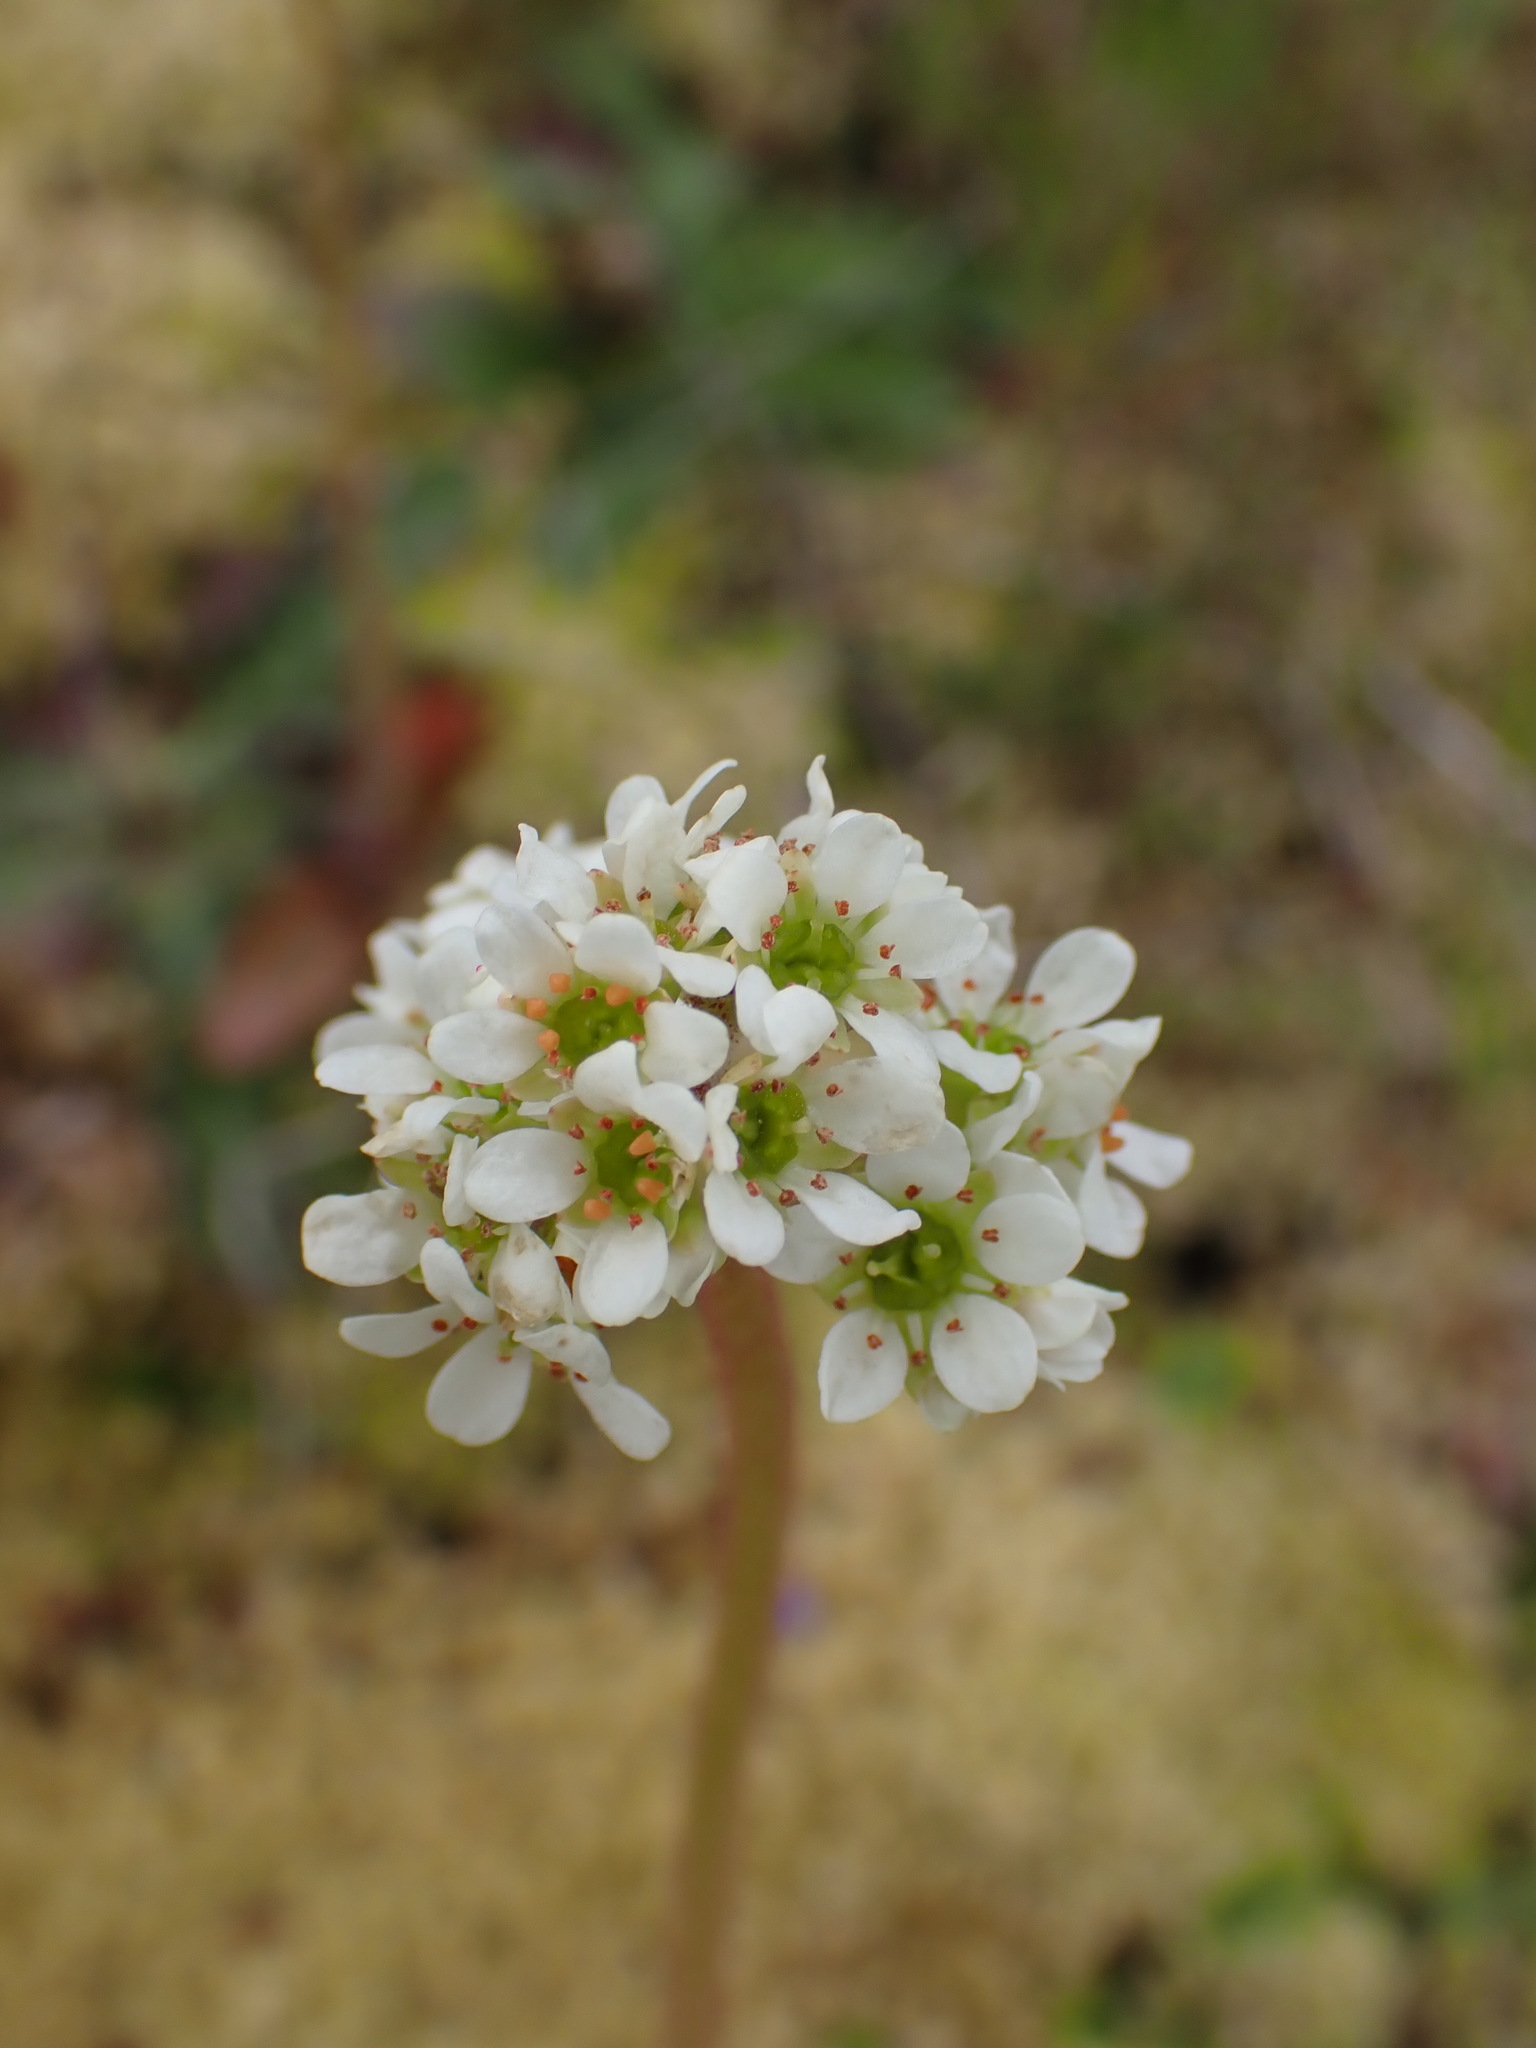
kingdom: Plantae
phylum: Tracheophyta
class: Magnoliopsida
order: Saxifragales
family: Saxifragaceae
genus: Micranthes
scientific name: Micranthes integrifolia
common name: Wholeleaf saxifrage
